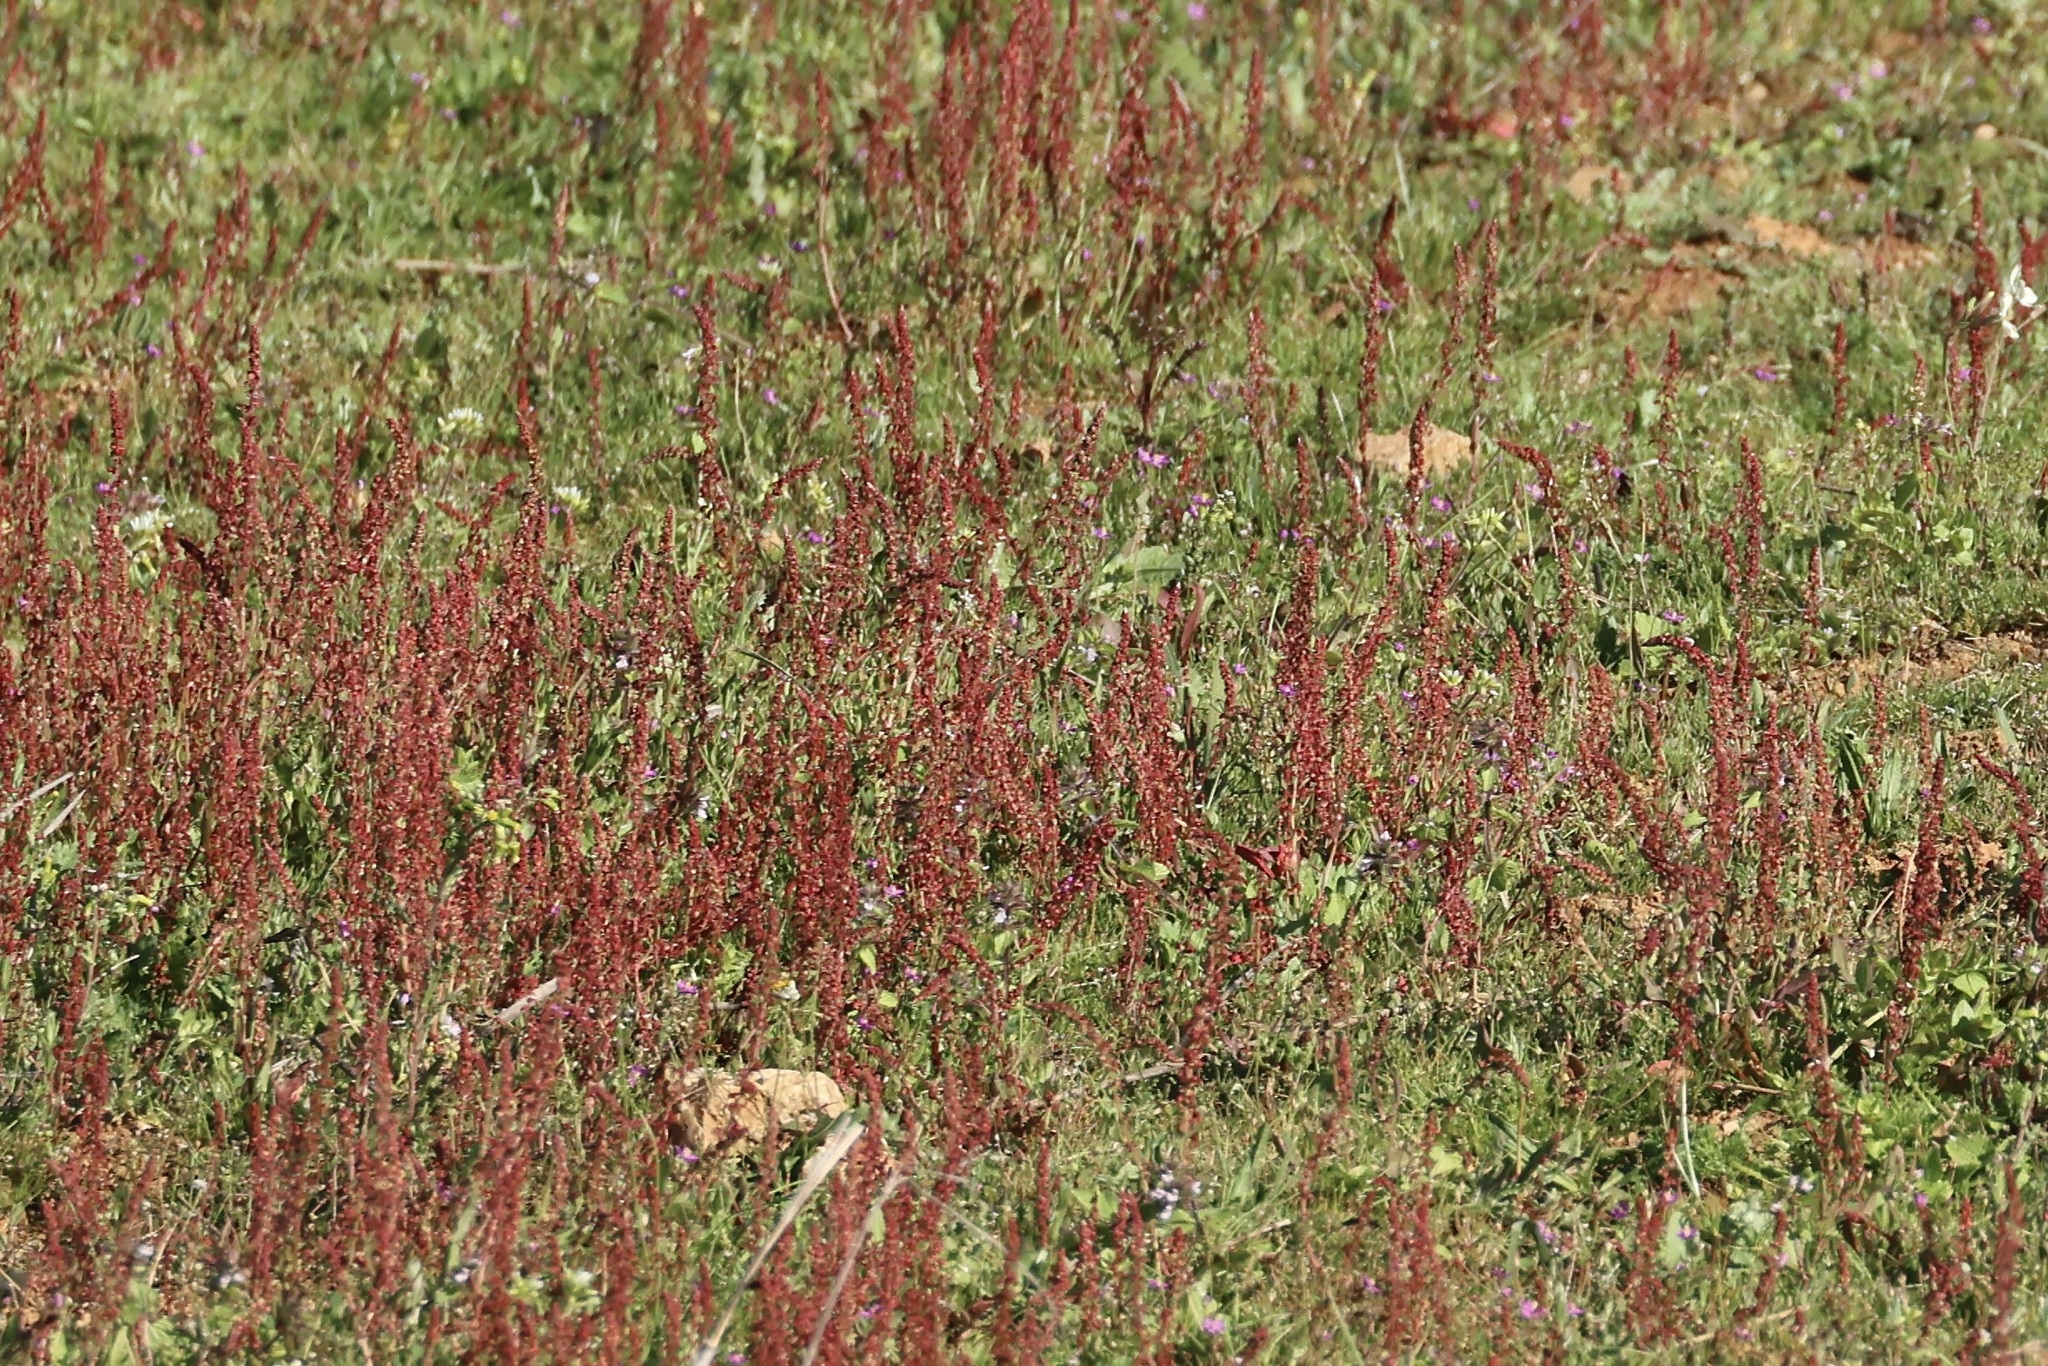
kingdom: Plantae
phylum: Tracheophyta
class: Magnoliopsida
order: Caryophyllales
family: Polygonaceae
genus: Rumex
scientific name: Rumex bucephalophorus
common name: Red dock
